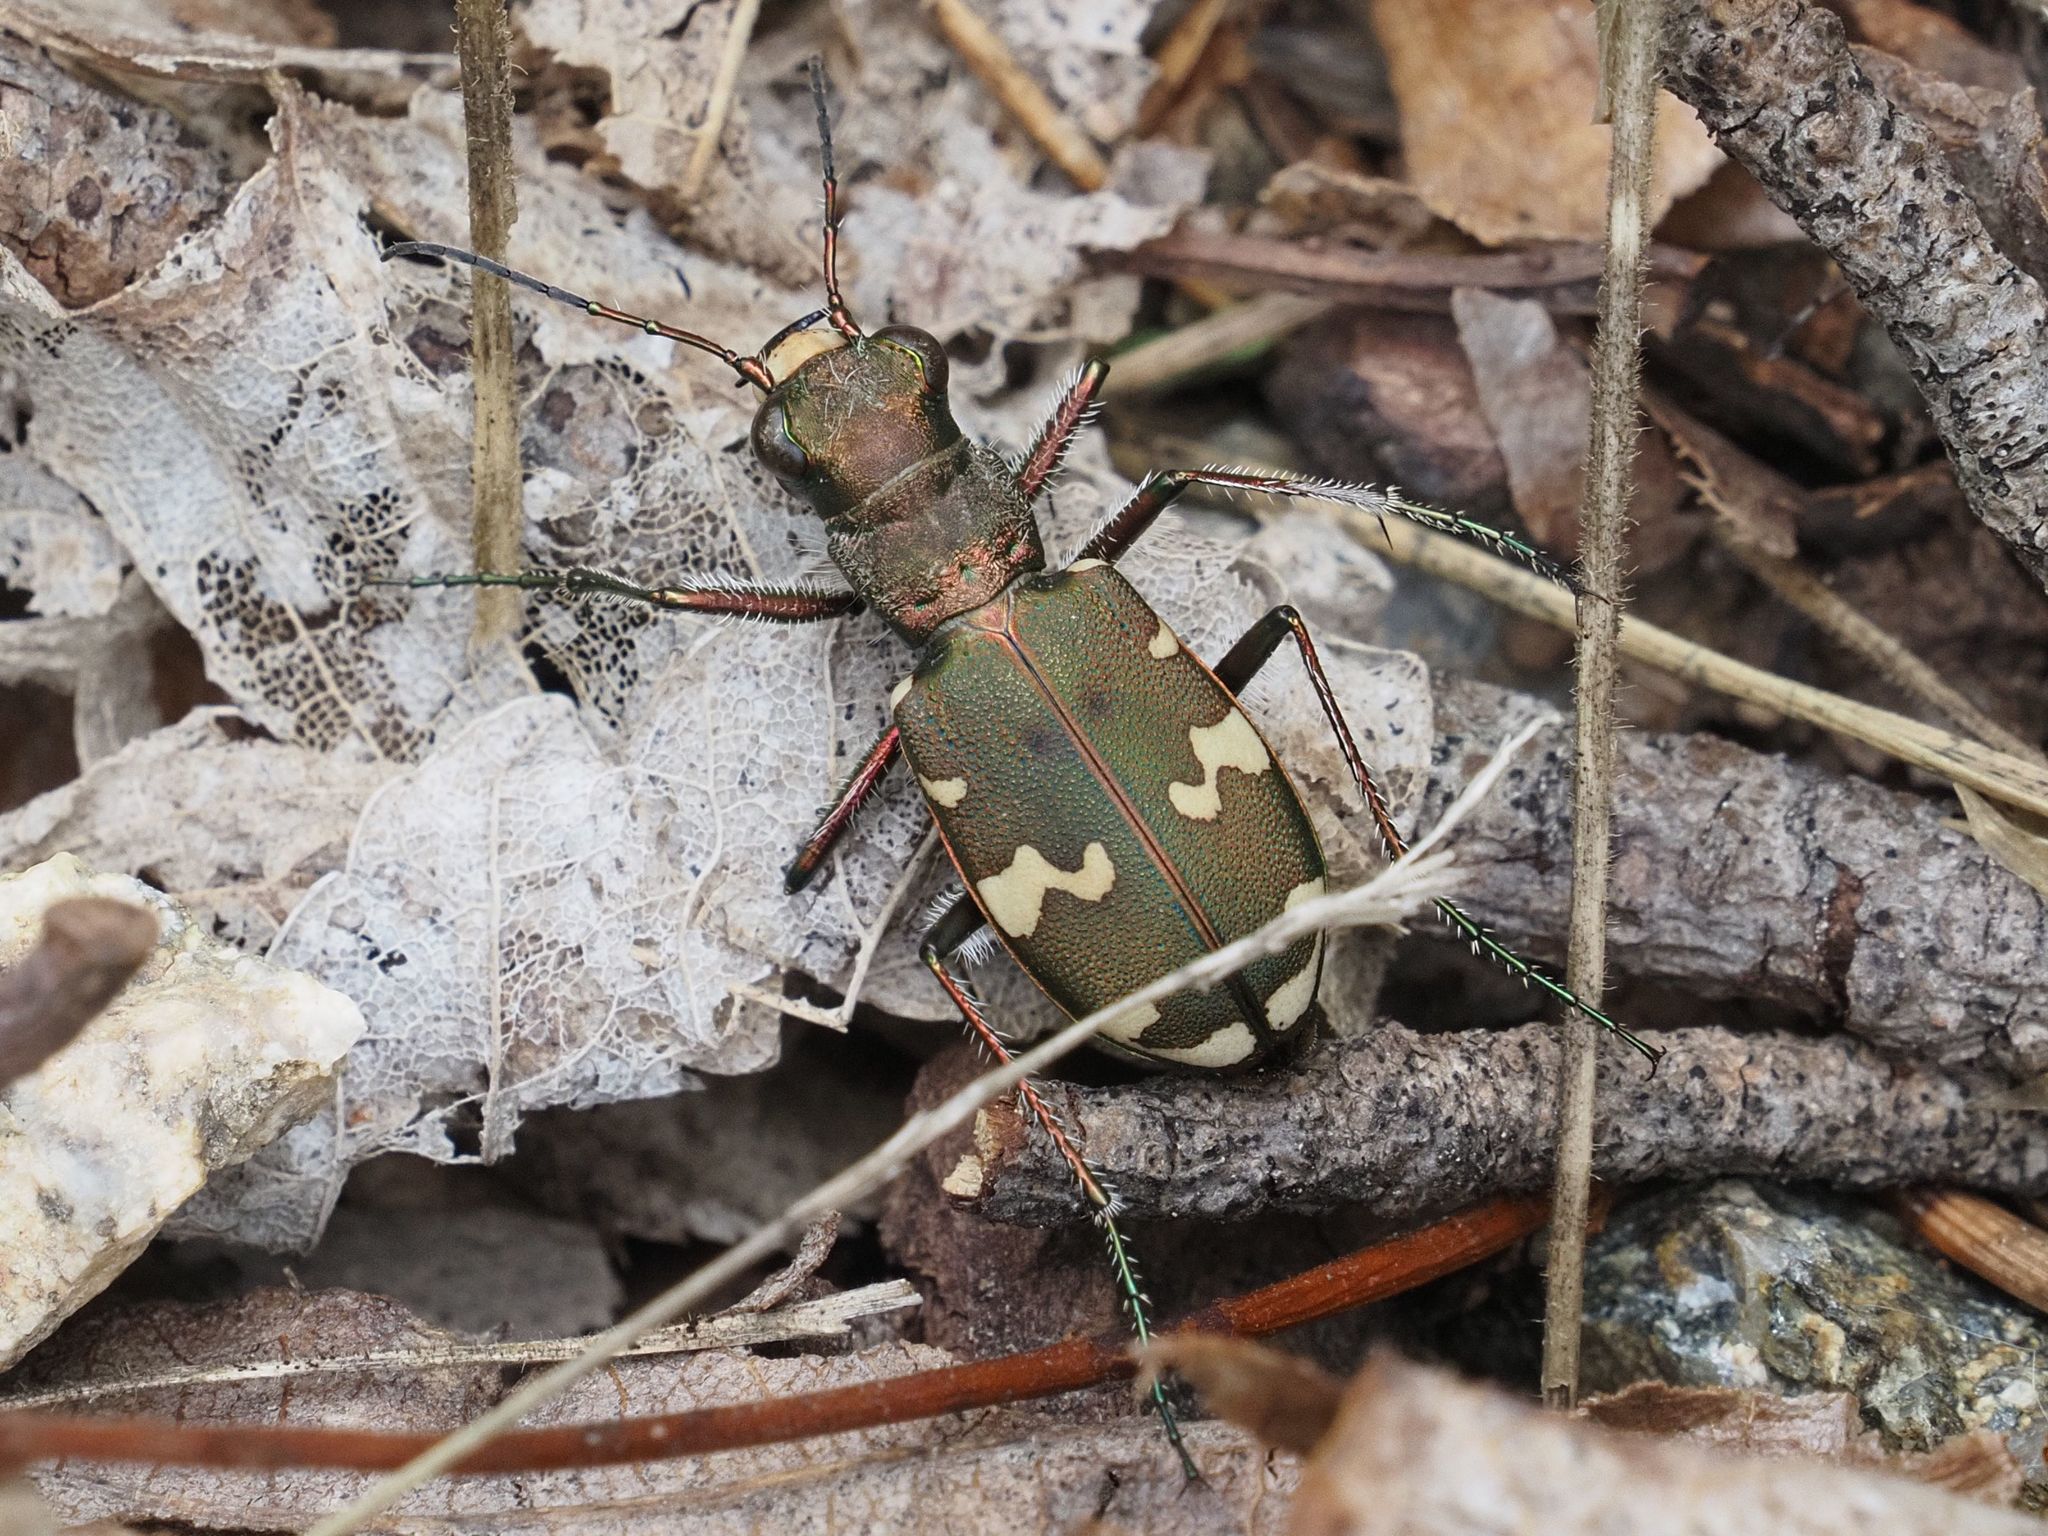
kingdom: Animalia
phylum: Arthropoda
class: Insecta
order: Coleoptera
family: Carabidae
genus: Cicindela
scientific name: Cicindela sylvicola
